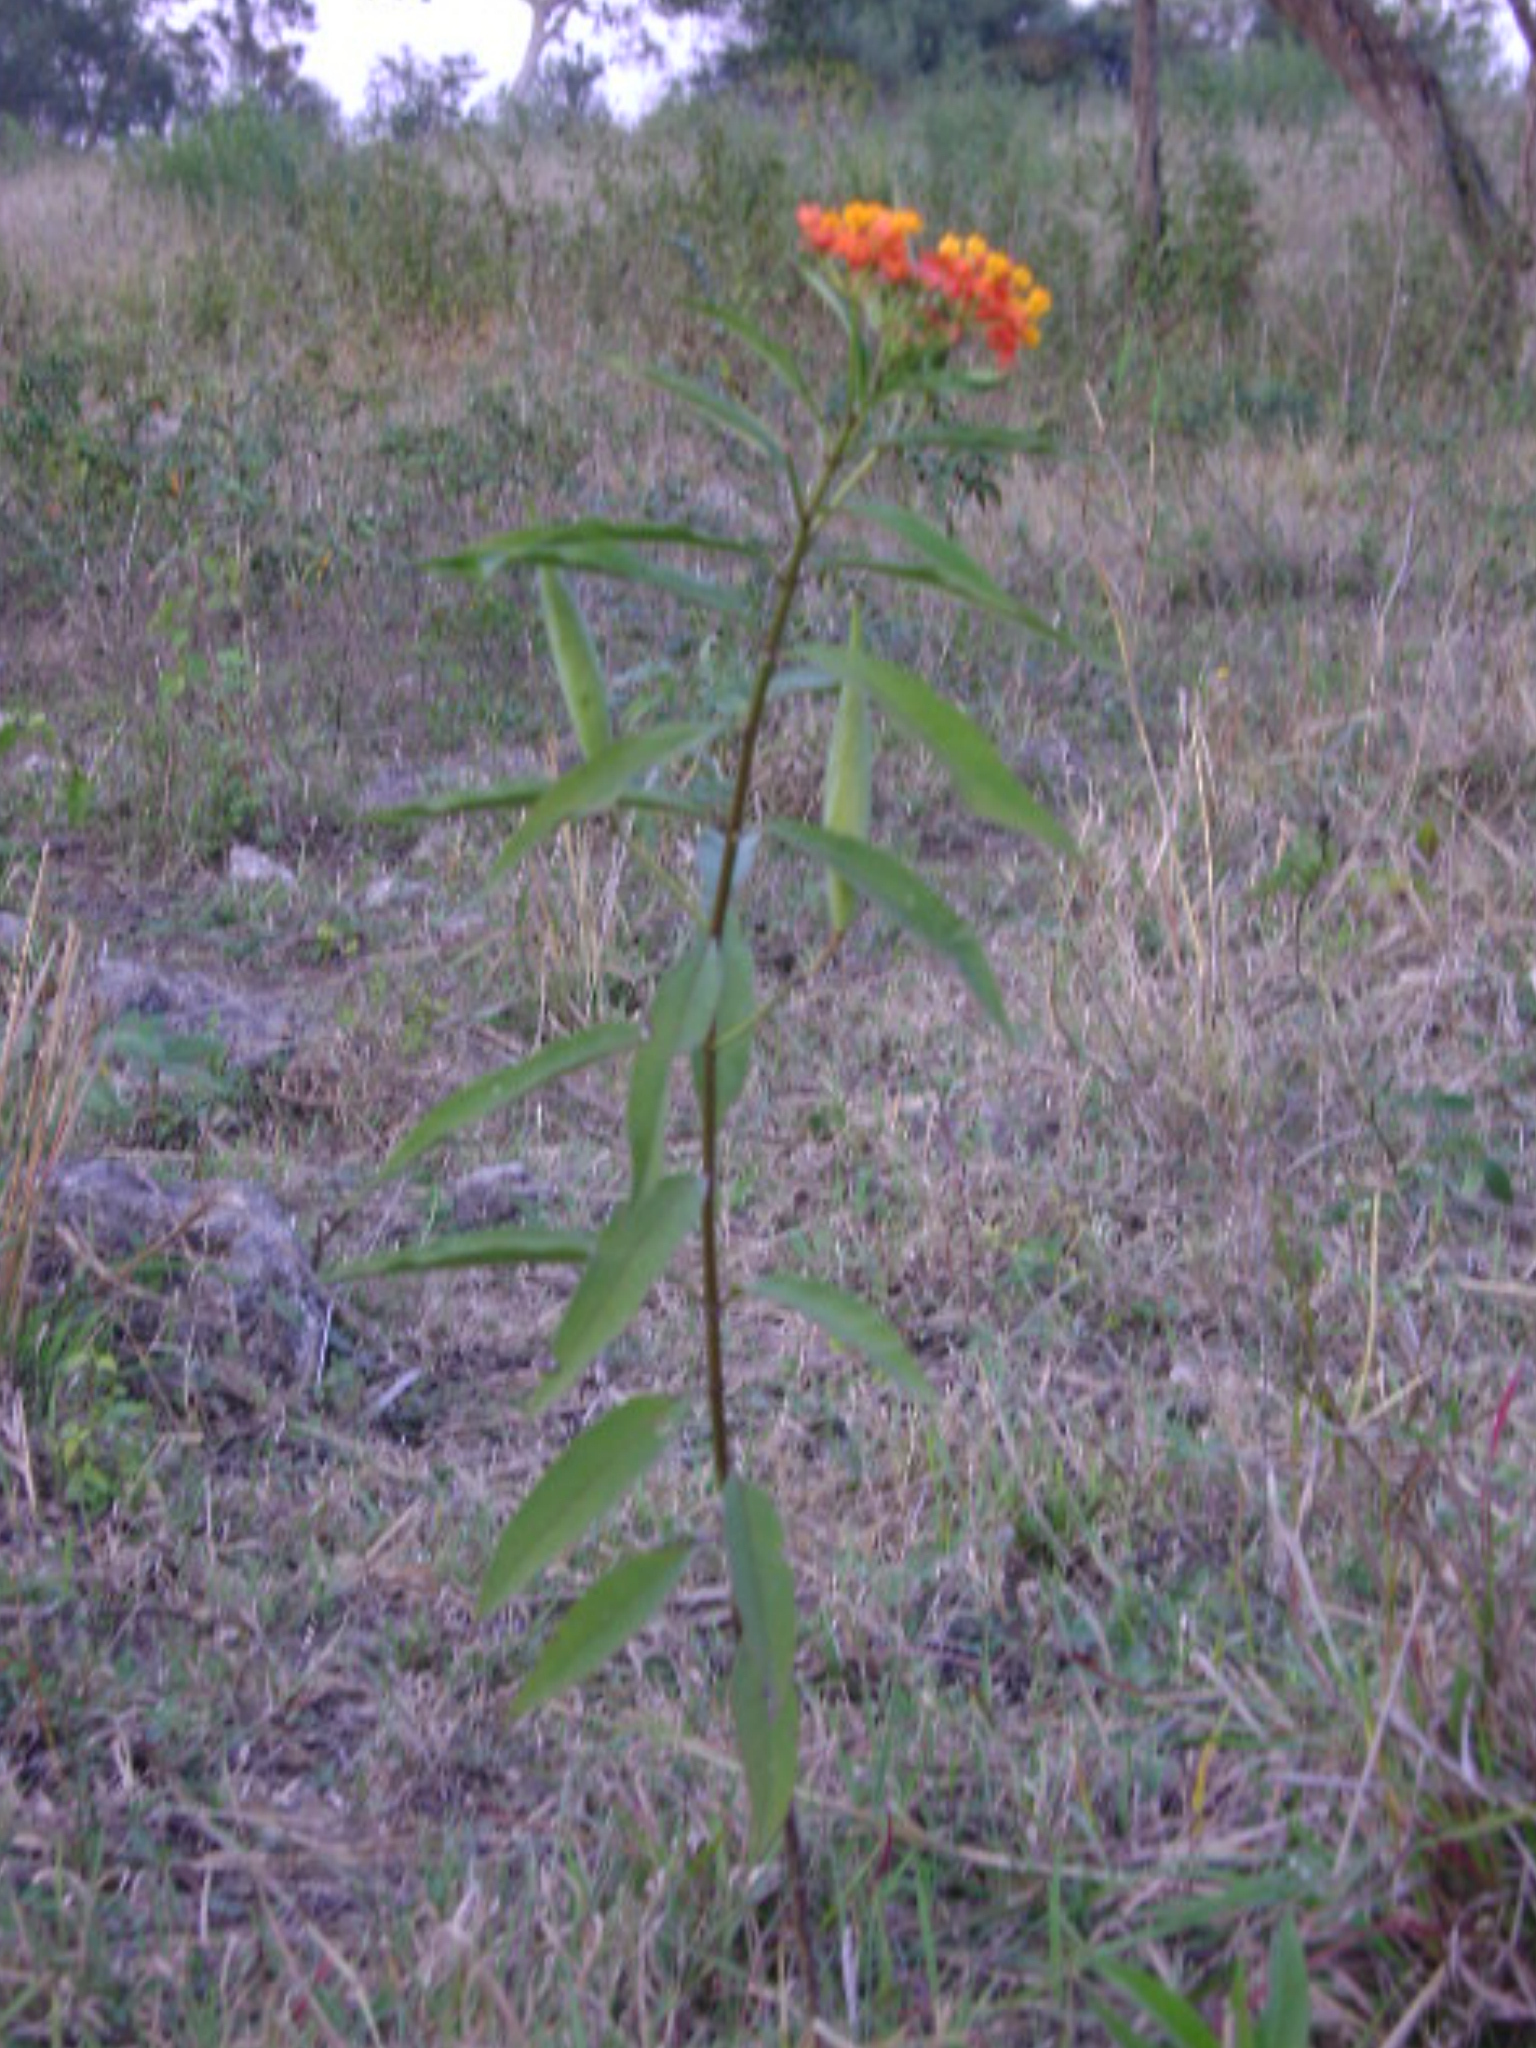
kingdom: Plantae
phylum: Tracheophyta
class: Magnoliopsida
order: Gentianales
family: Apocynaceae
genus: Asclepias
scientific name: Asclepias curassavica
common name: Bloodflower
